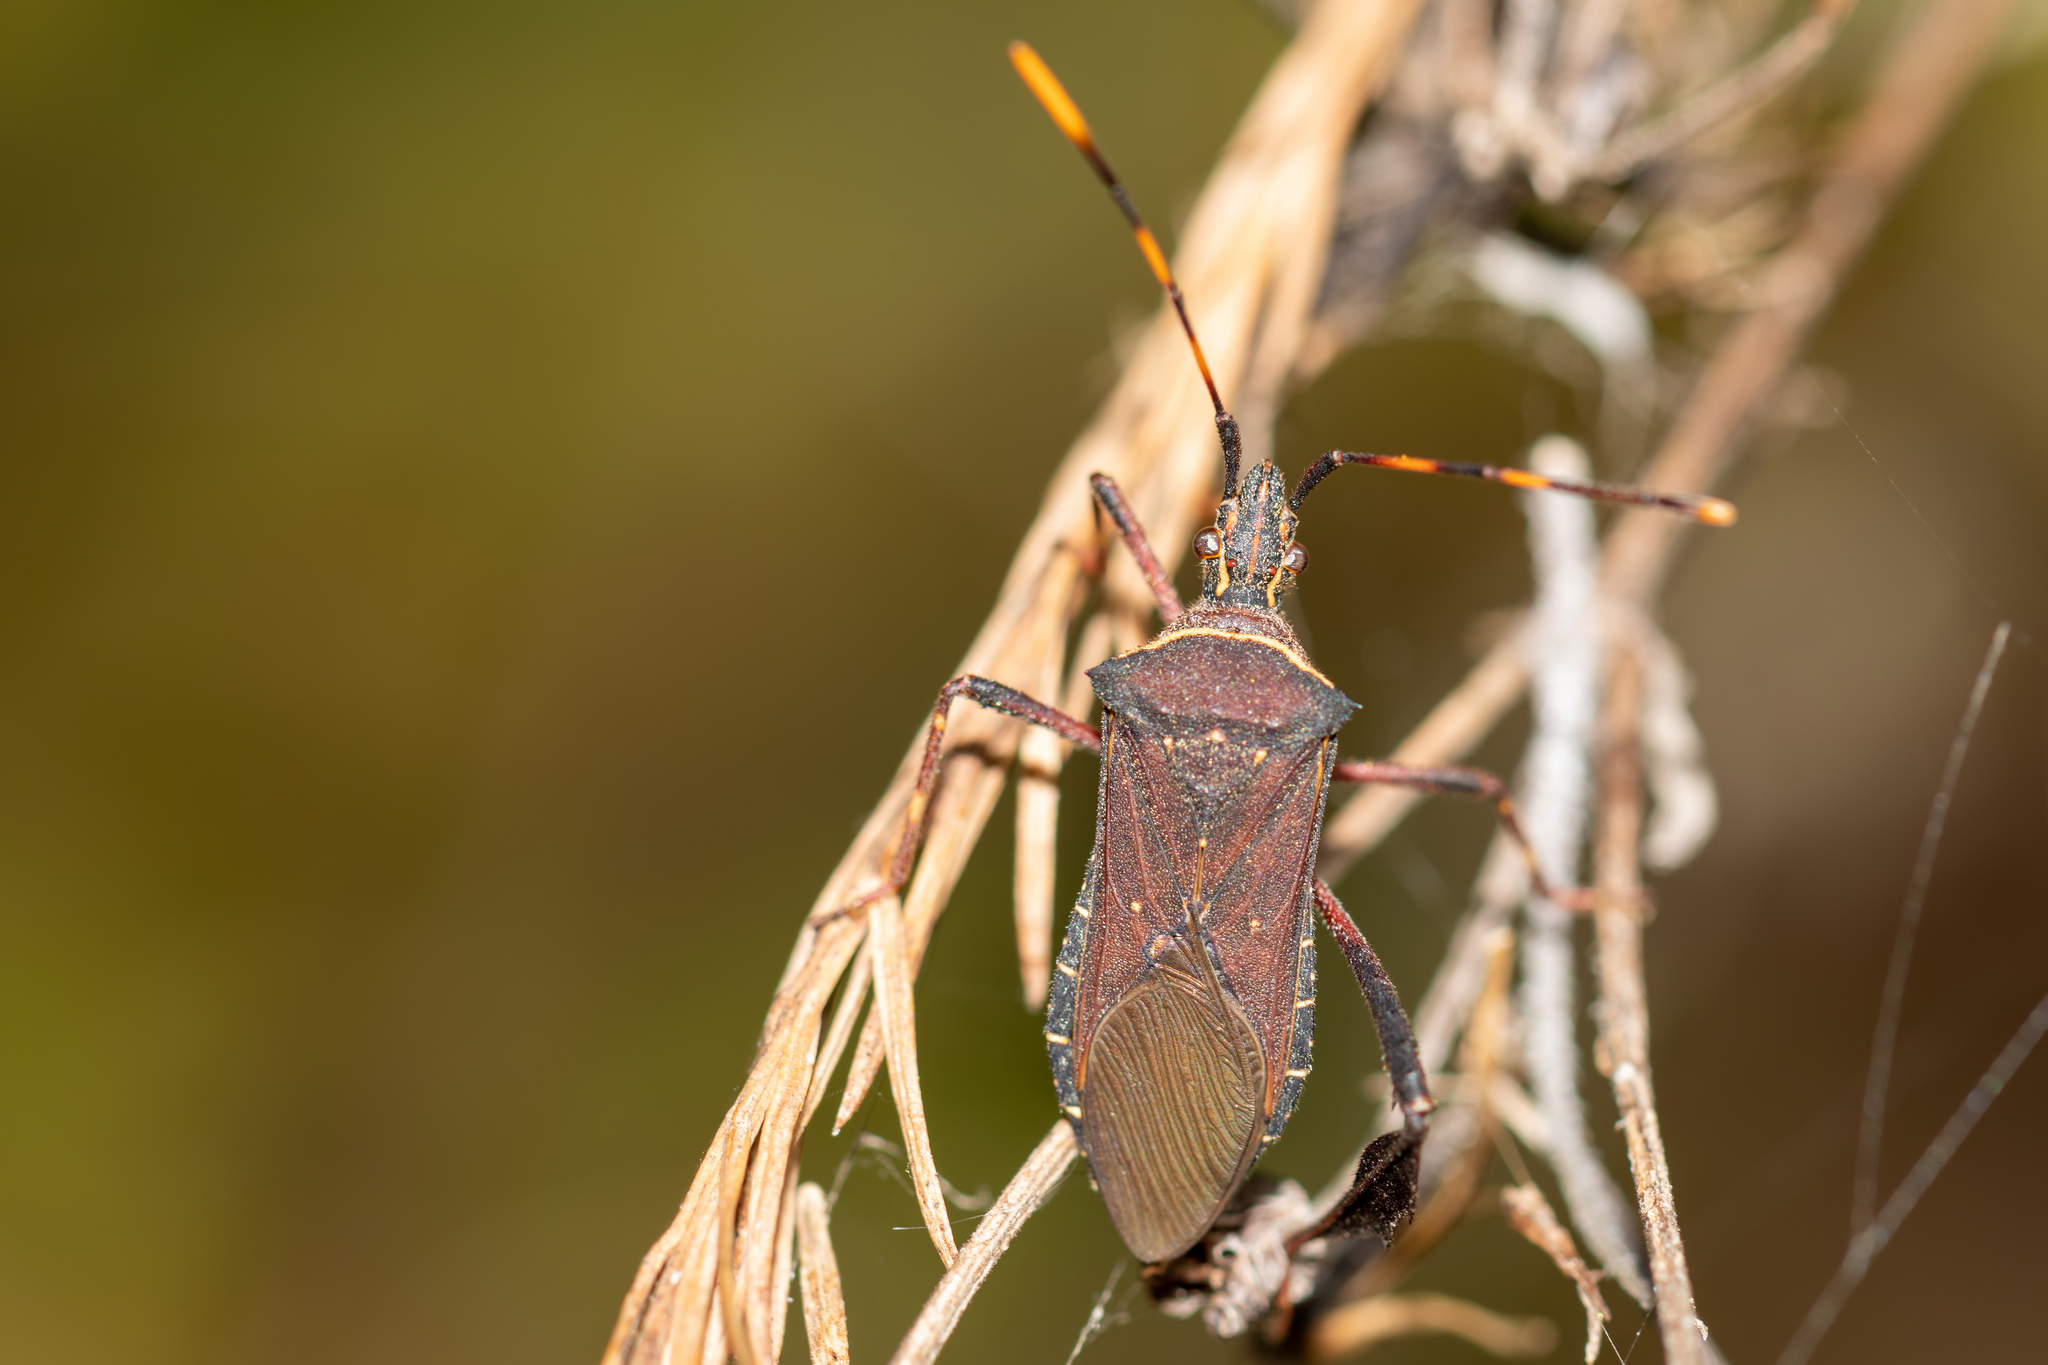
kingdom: Animalia
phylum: Arthropoda
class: Insecta
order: Hemiptera
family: Coreidae
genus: Leptoglossus
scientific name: Leptoglossus gonagra
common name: Citron bug
